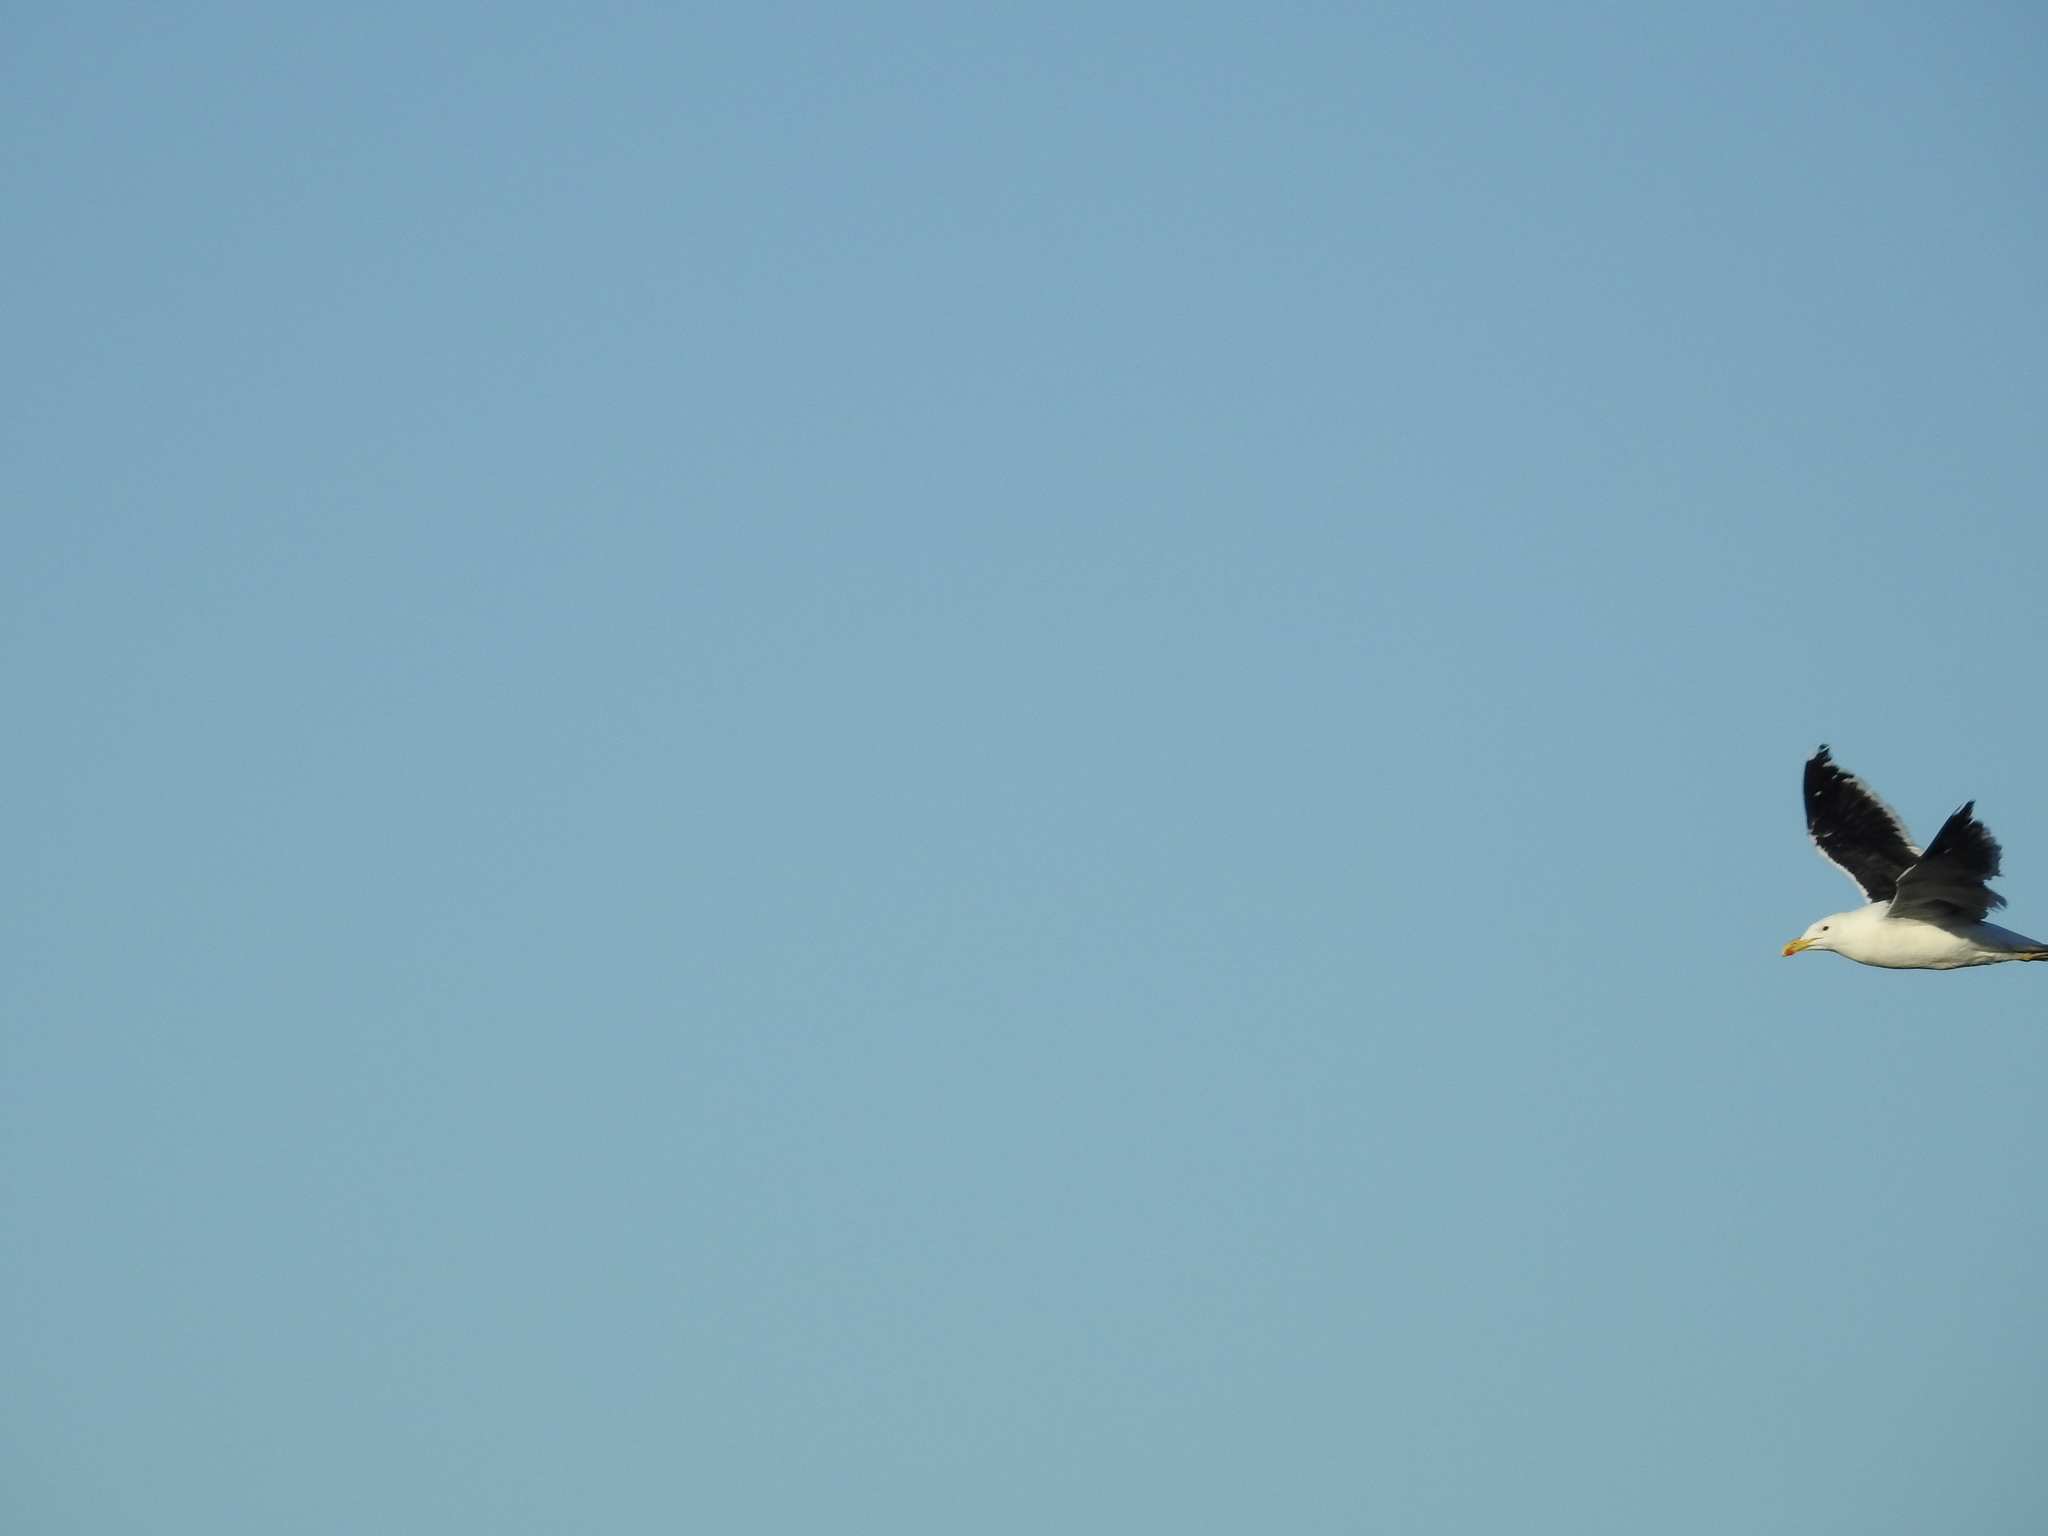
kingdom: Animalia
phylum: Chordata
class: Aves
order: Charadriiformes
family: Laridae
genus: Larus
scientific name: Larus dominicanus
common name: Kelp gull
